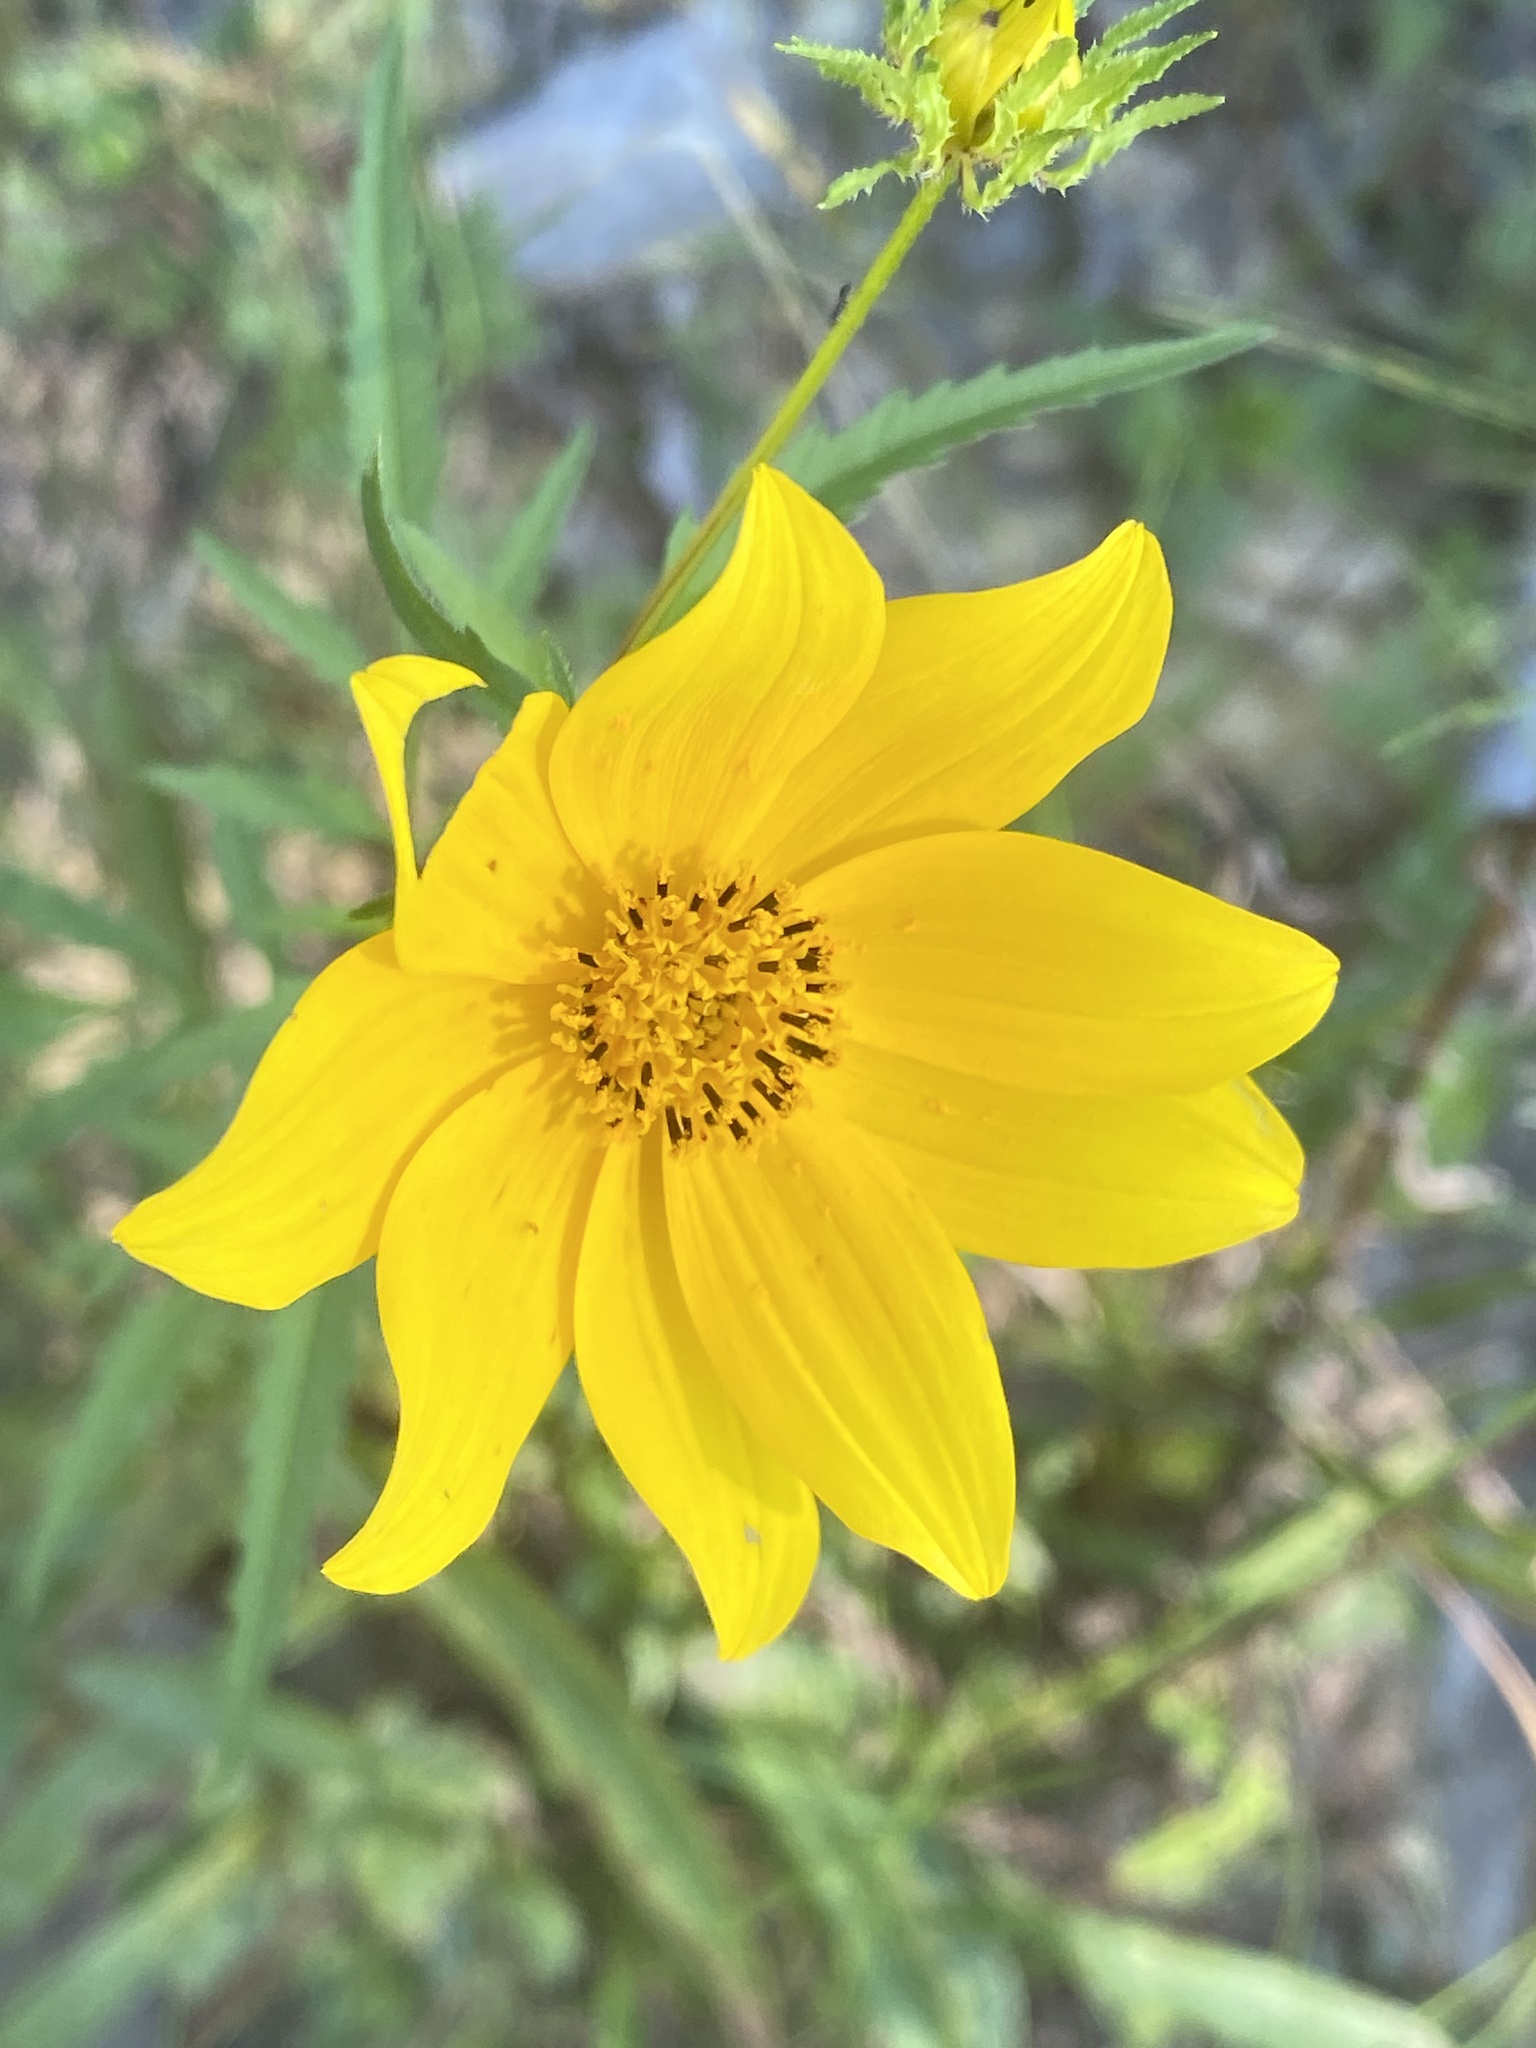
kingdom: Plantae
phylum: Tracheophyta
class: Magnoliopsida
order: Asterales
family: Asteraceae
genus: Bidens
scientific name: Bidens aristosa
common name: Western tickseed
